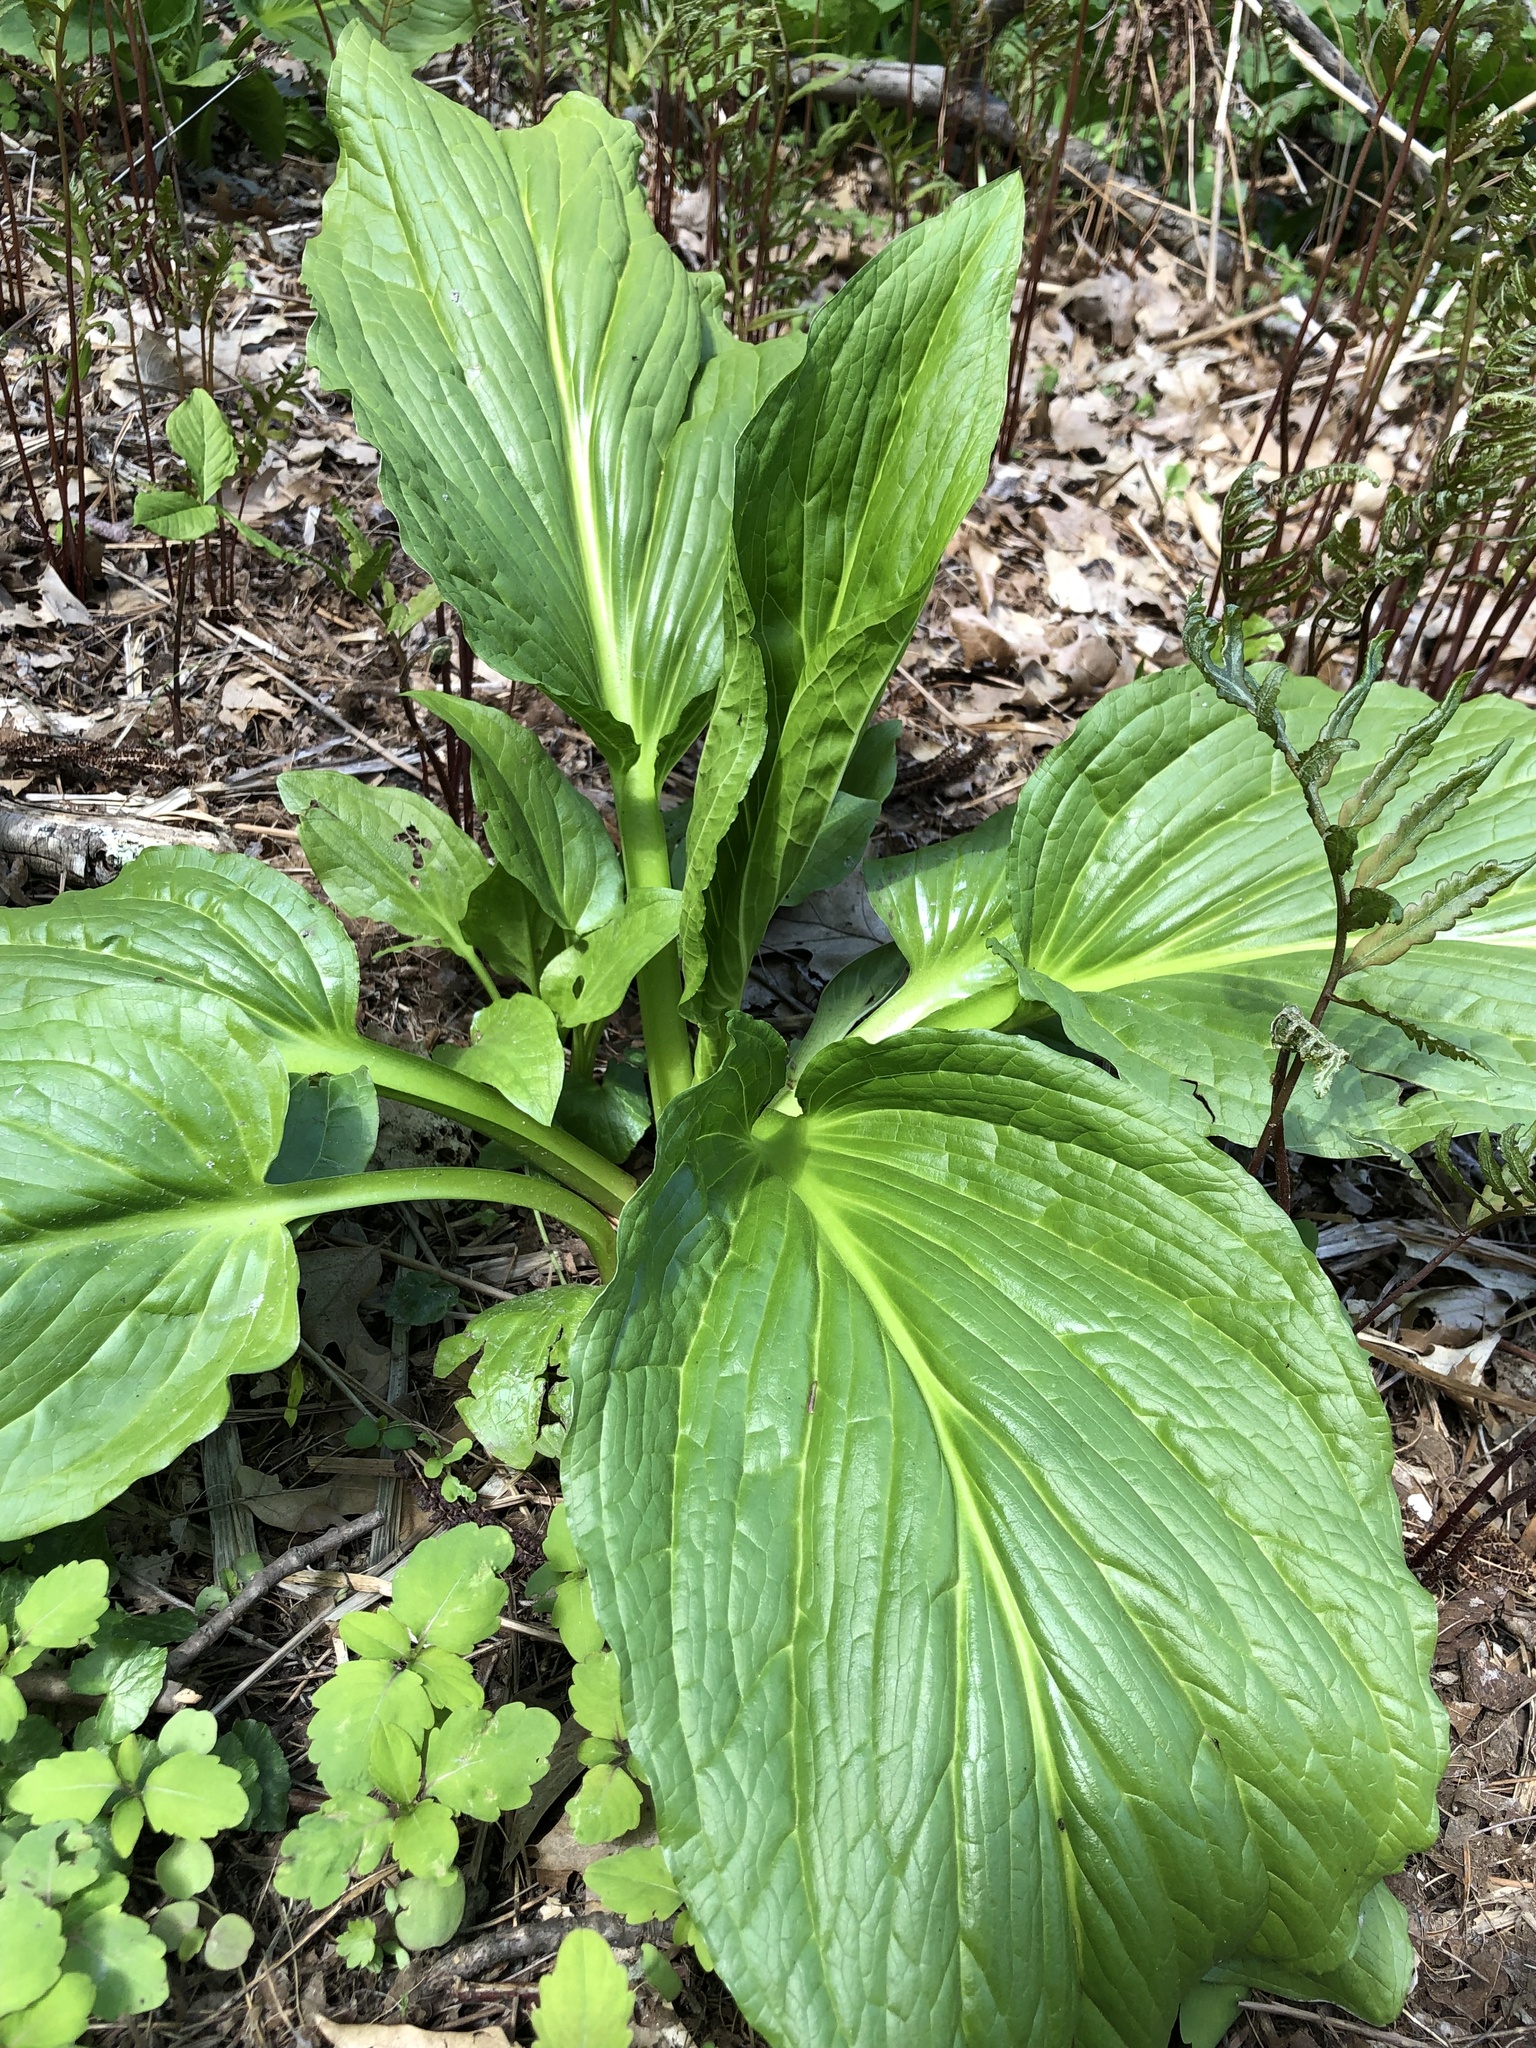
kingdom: Plantae
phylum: Tracheophyta
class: Liliopsida
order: Alismatales
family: Araceae
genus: Symplocarpus
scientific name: Symplocarpus foetidus
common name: Eastern skunk cabbage
